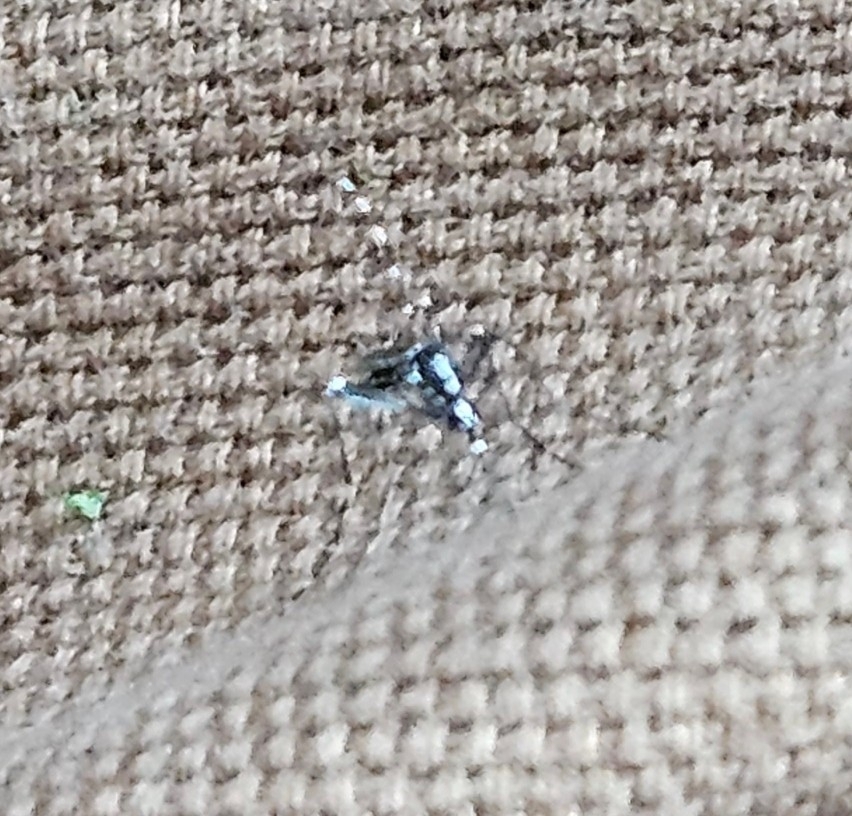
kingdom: Animalia
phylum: Arthropoda
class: Insecta
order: Diptera
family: Culicidae
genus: Aedes
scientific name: Aedes albopictus
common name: Tiger mosquito
